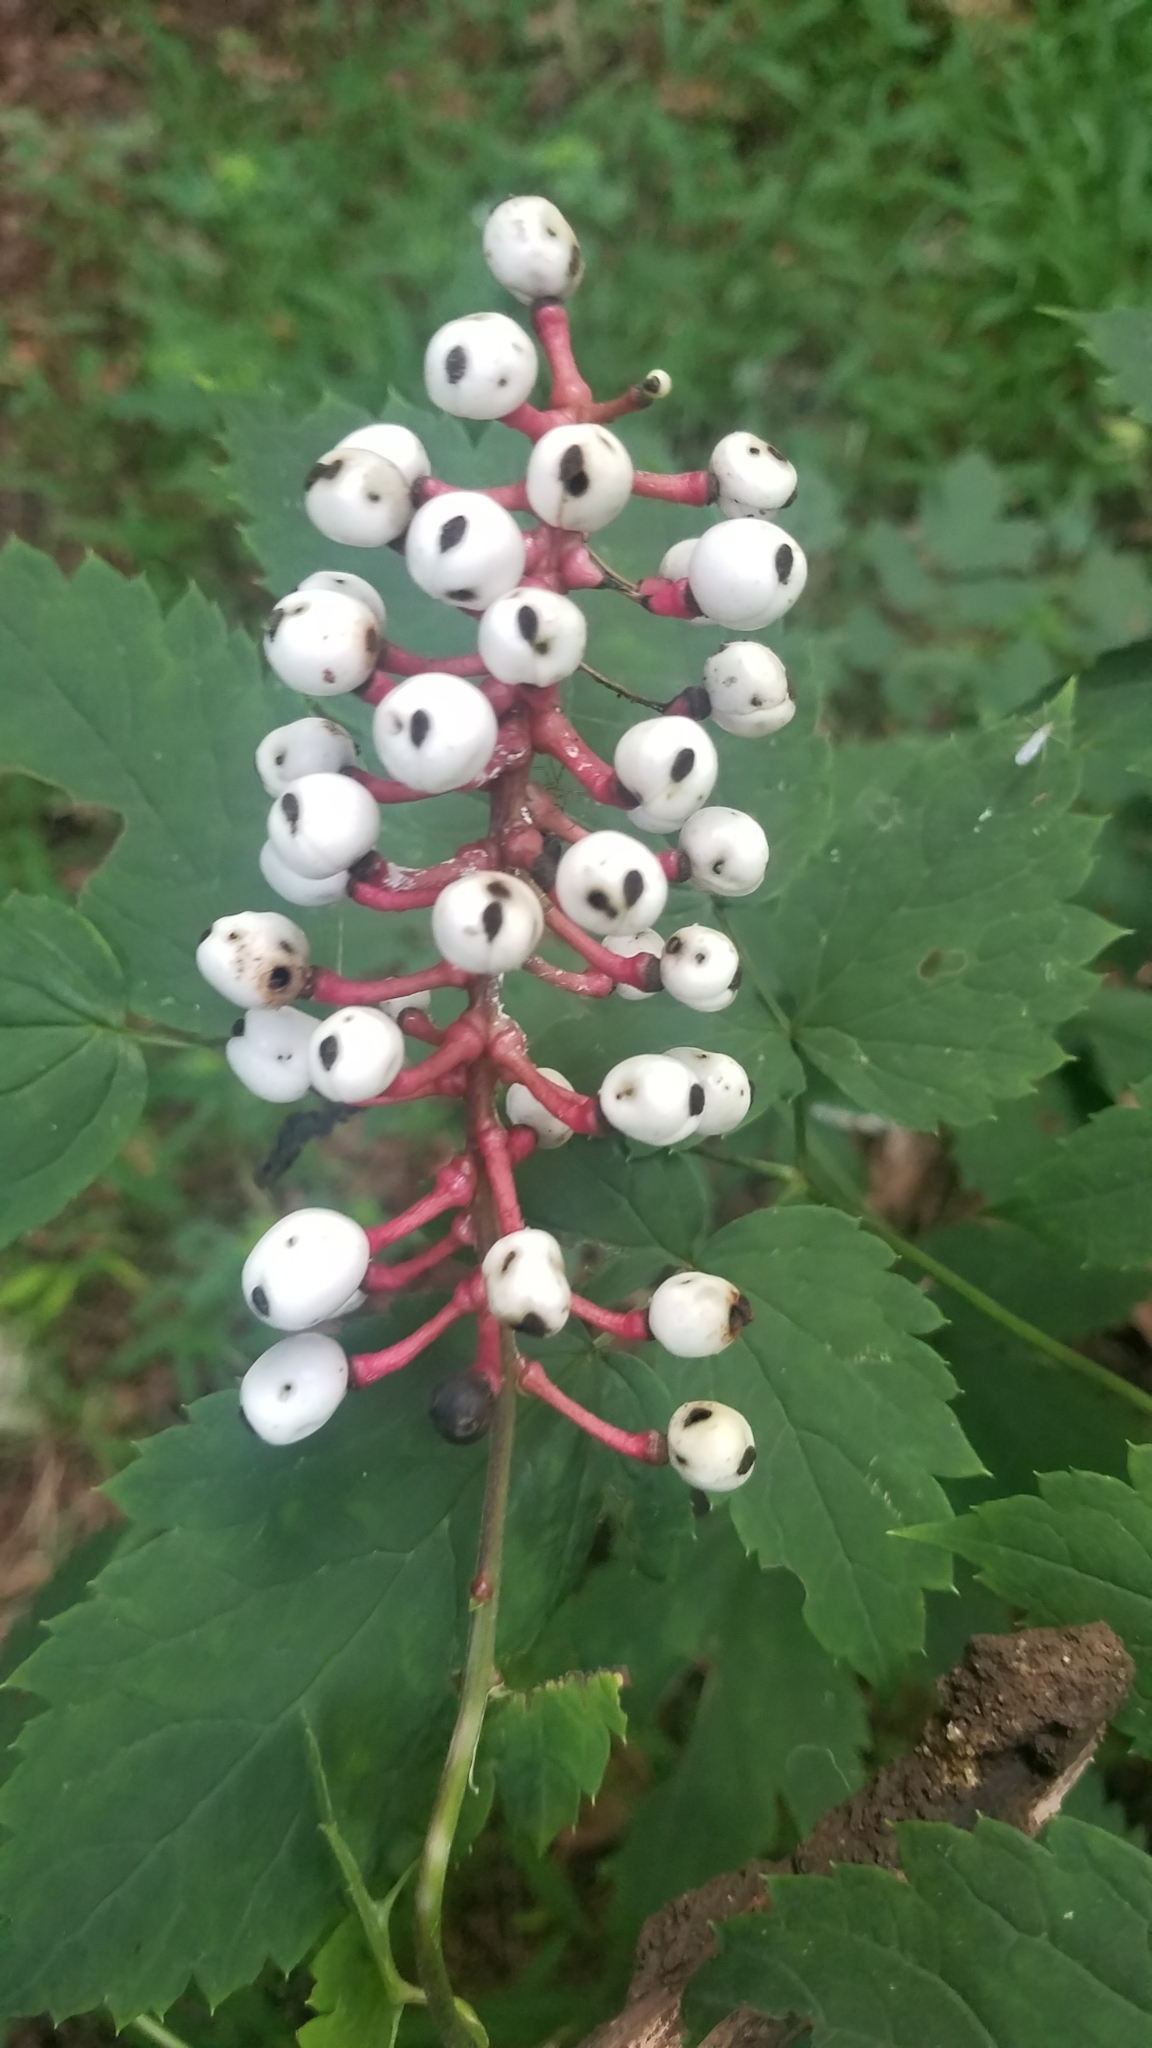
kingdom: Plantae
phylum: Tracheophyta
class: Magnoliopsida
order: Ranunculales
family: Ranunculaceae
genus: Actaea
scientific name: Actaea pachypoda
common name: Doll's-eyes
